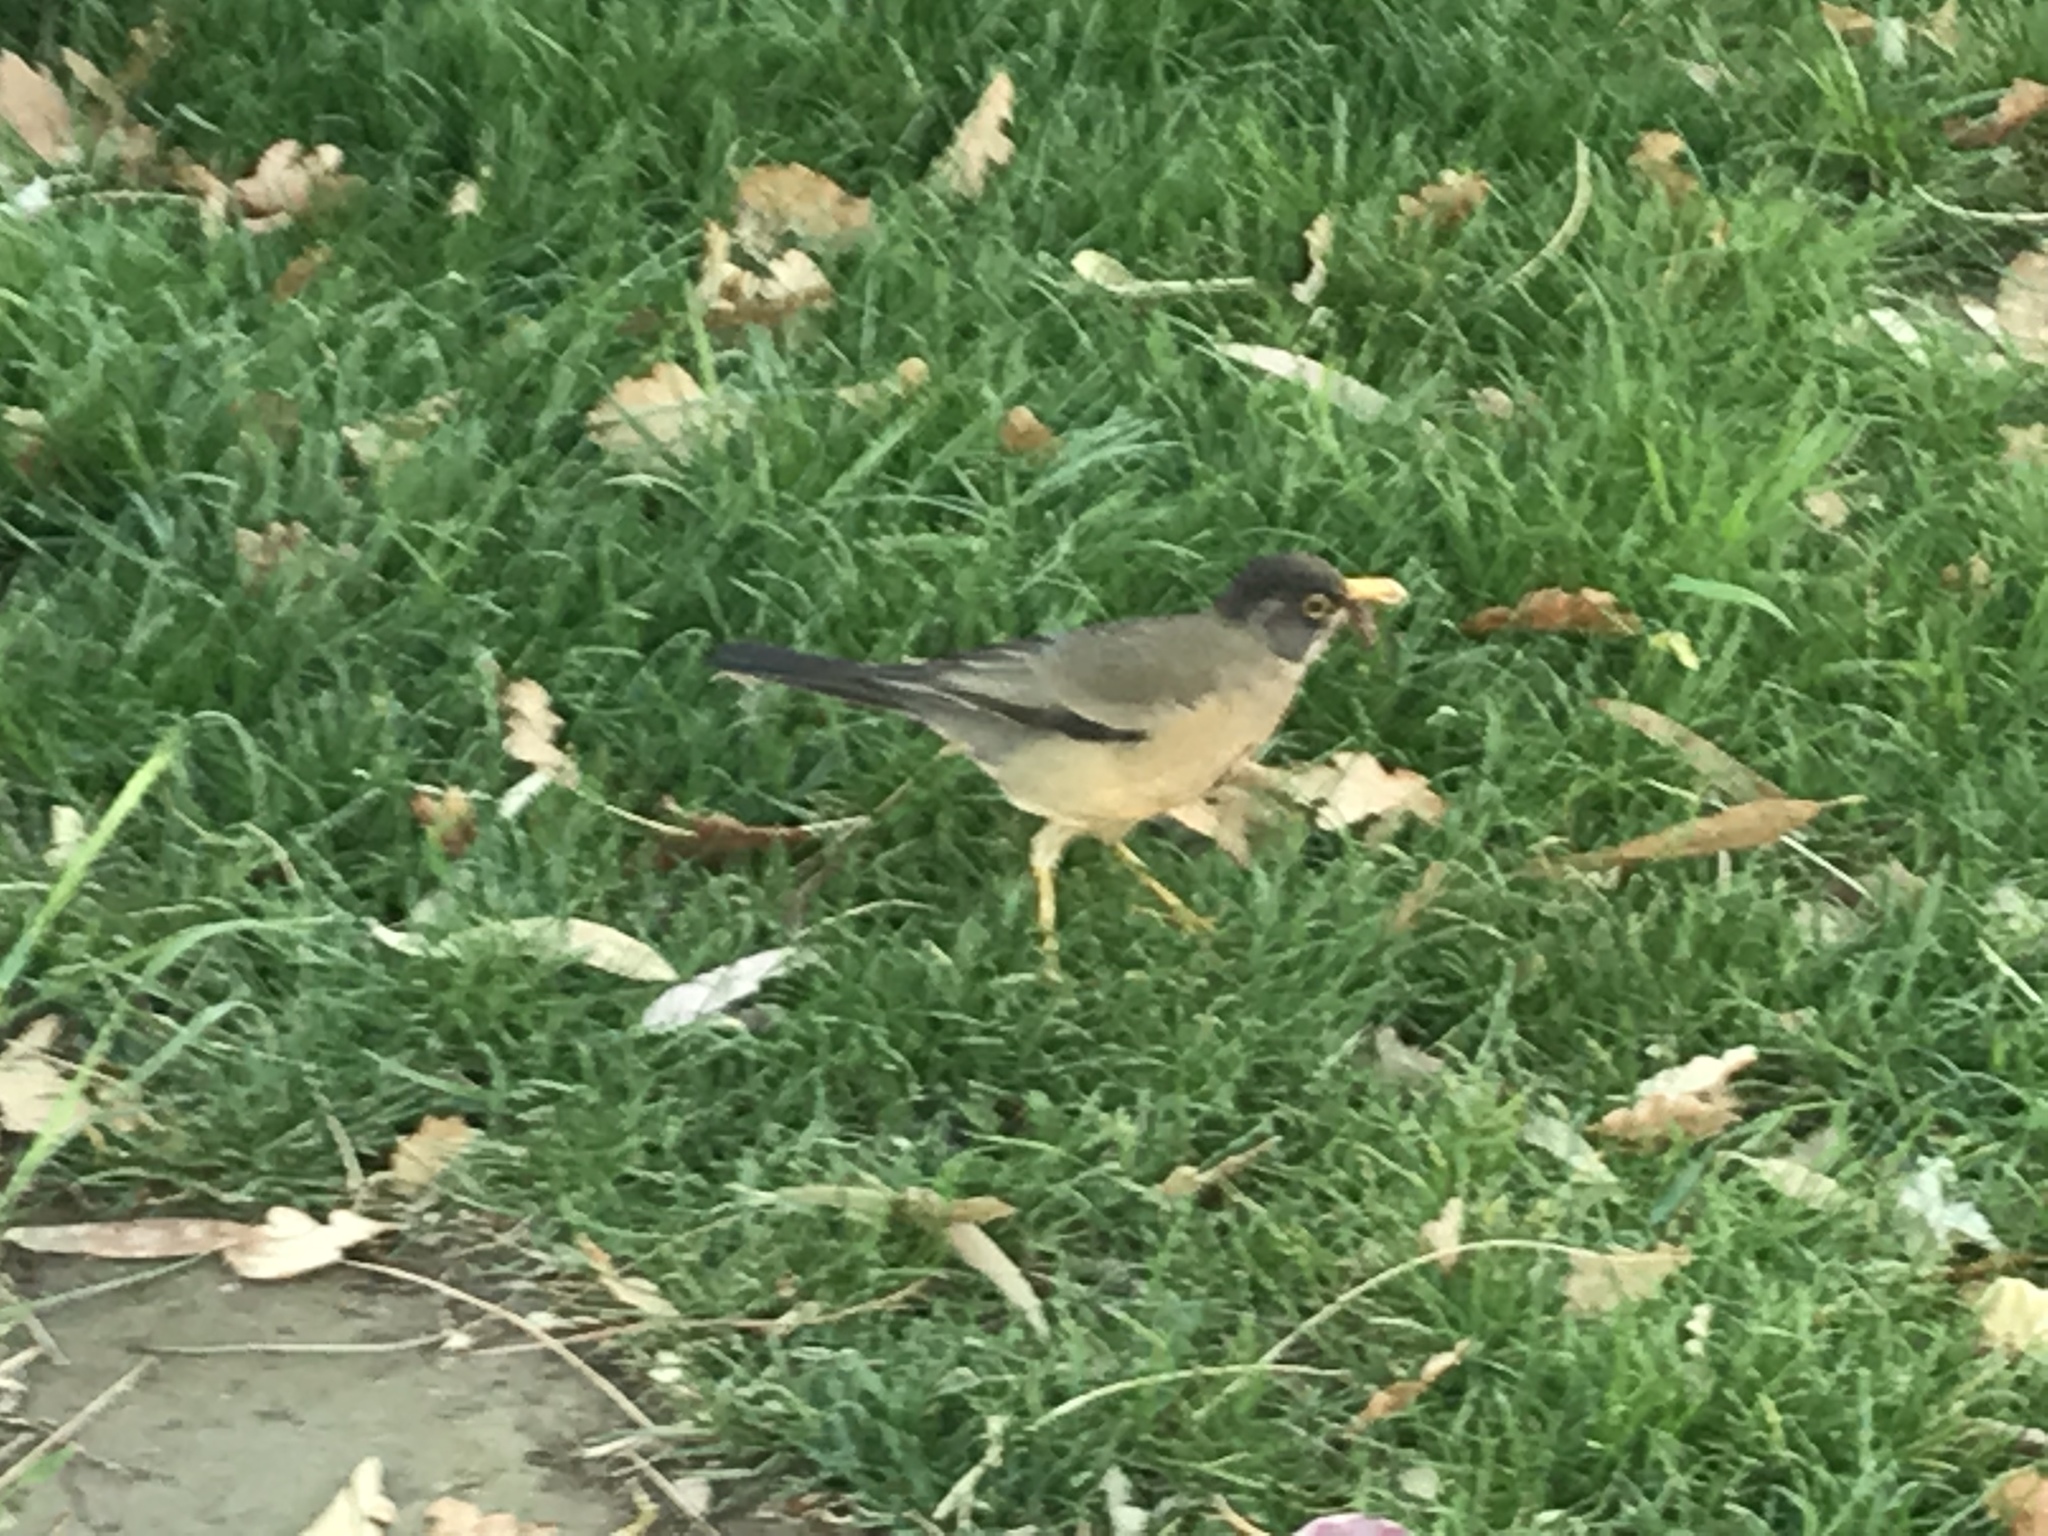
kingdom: Animalia
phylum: Chordata
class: Aves
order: Passeriformes
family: Turdidae
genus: Turdus
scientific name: Turdus falcklandii
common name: Austral thrush
